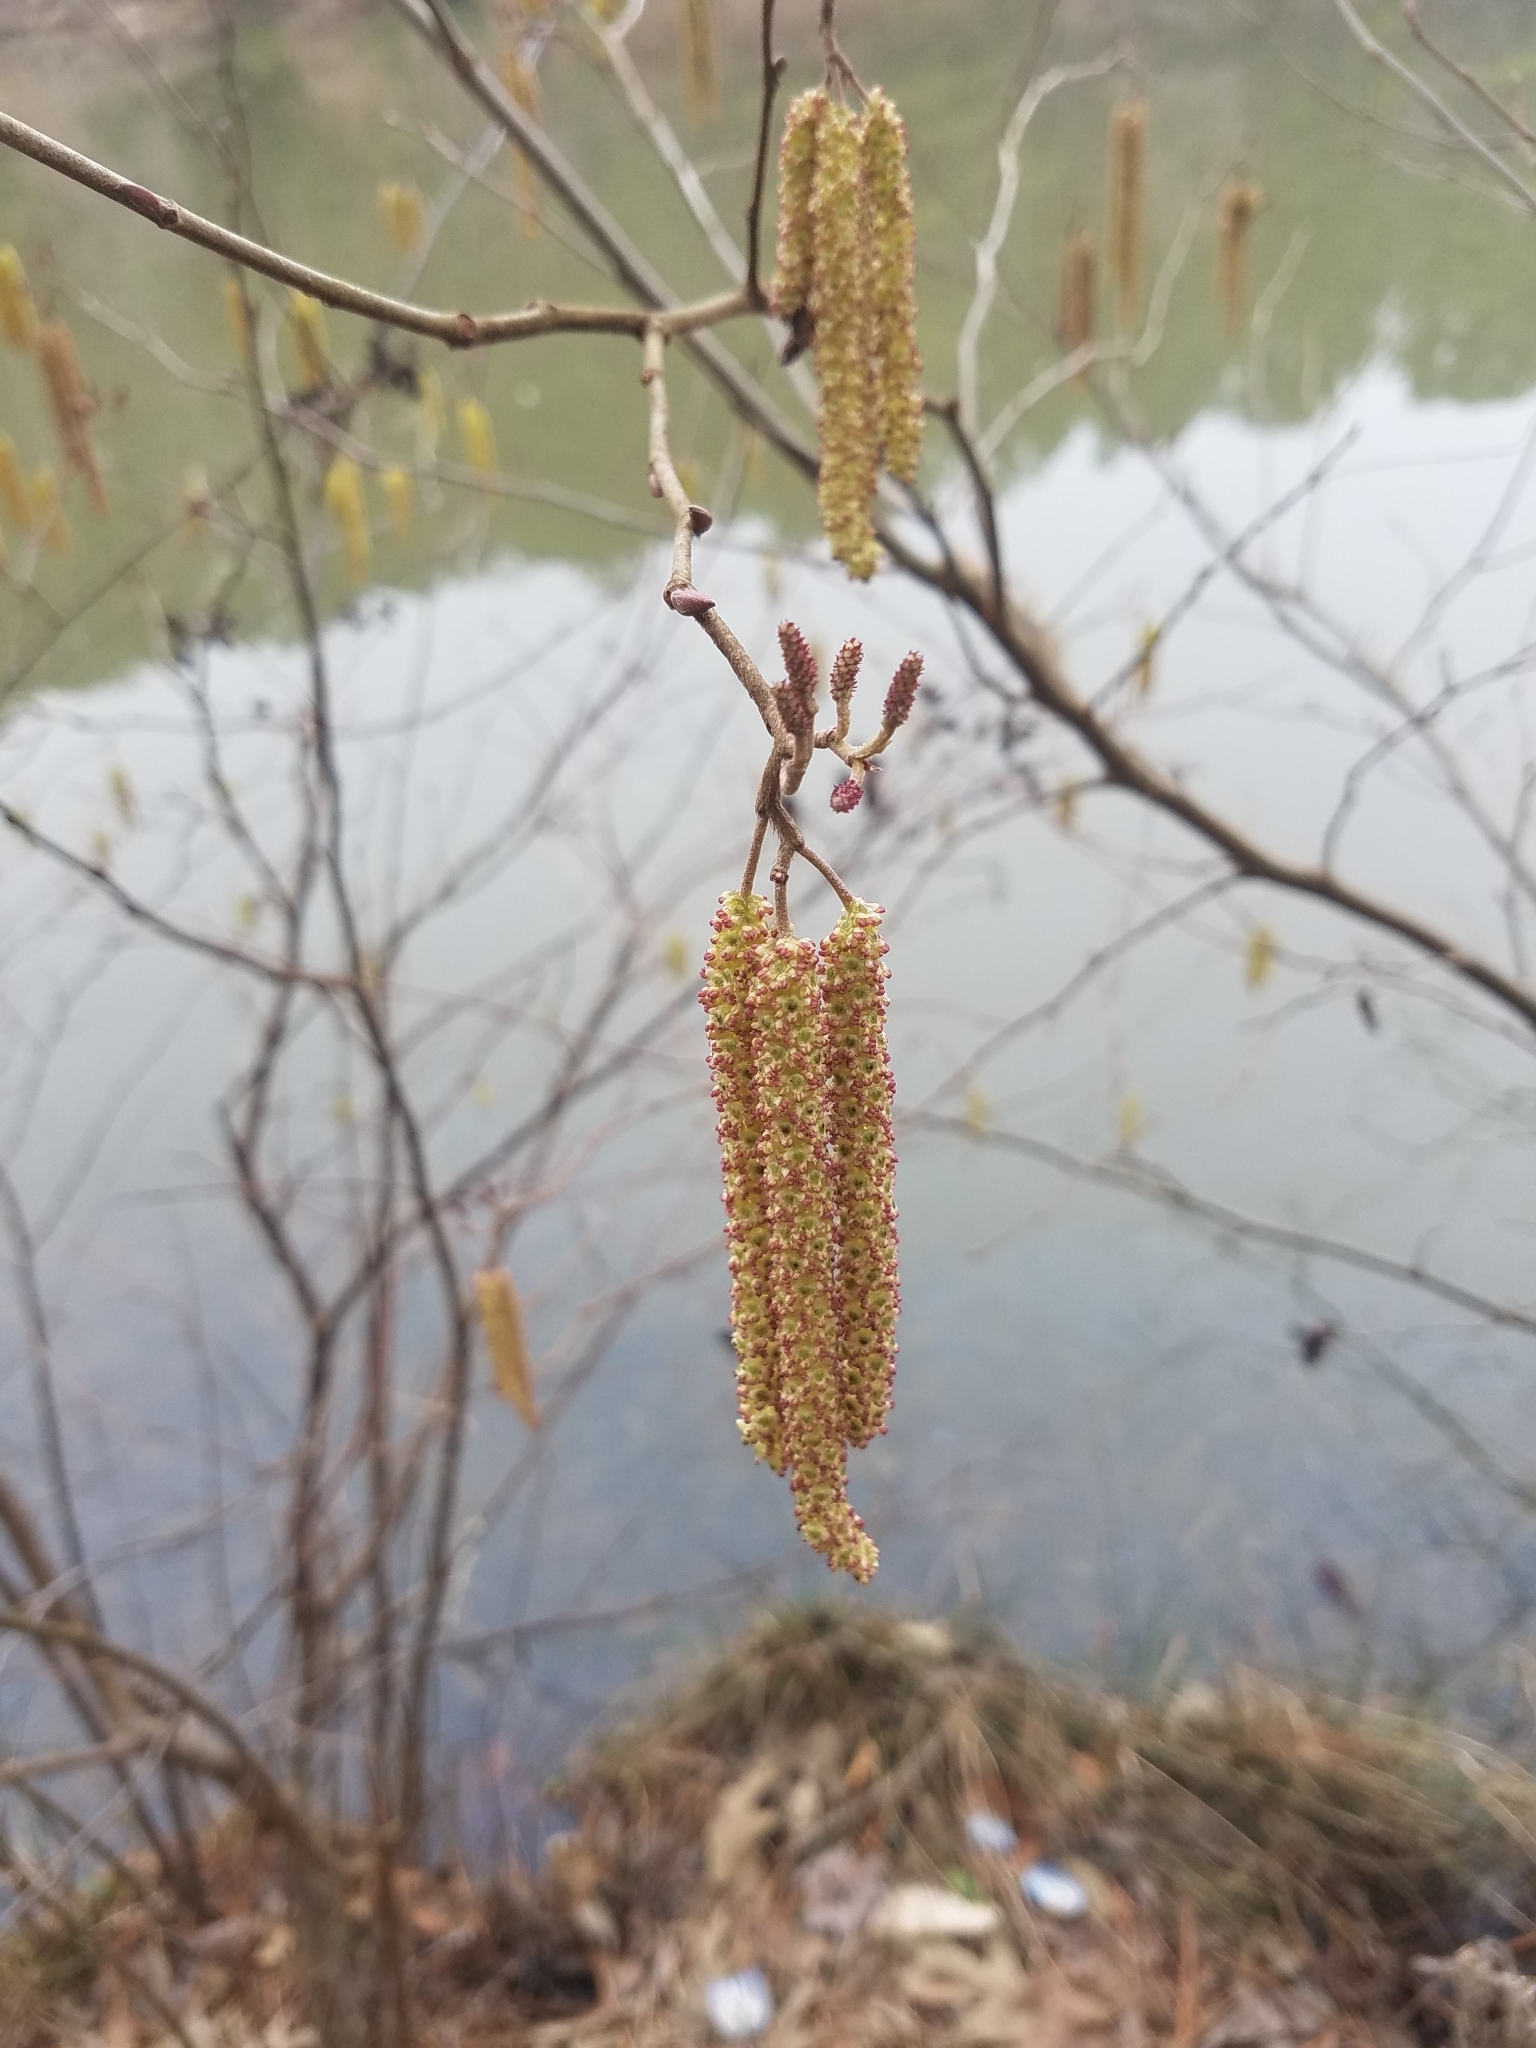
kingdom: Plantae
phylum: Tracheophyta
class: Magnoliopsida
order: Fagales
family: Betulaceae
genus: Alnus
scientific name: Alnus serrulata
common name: Hazel alder
